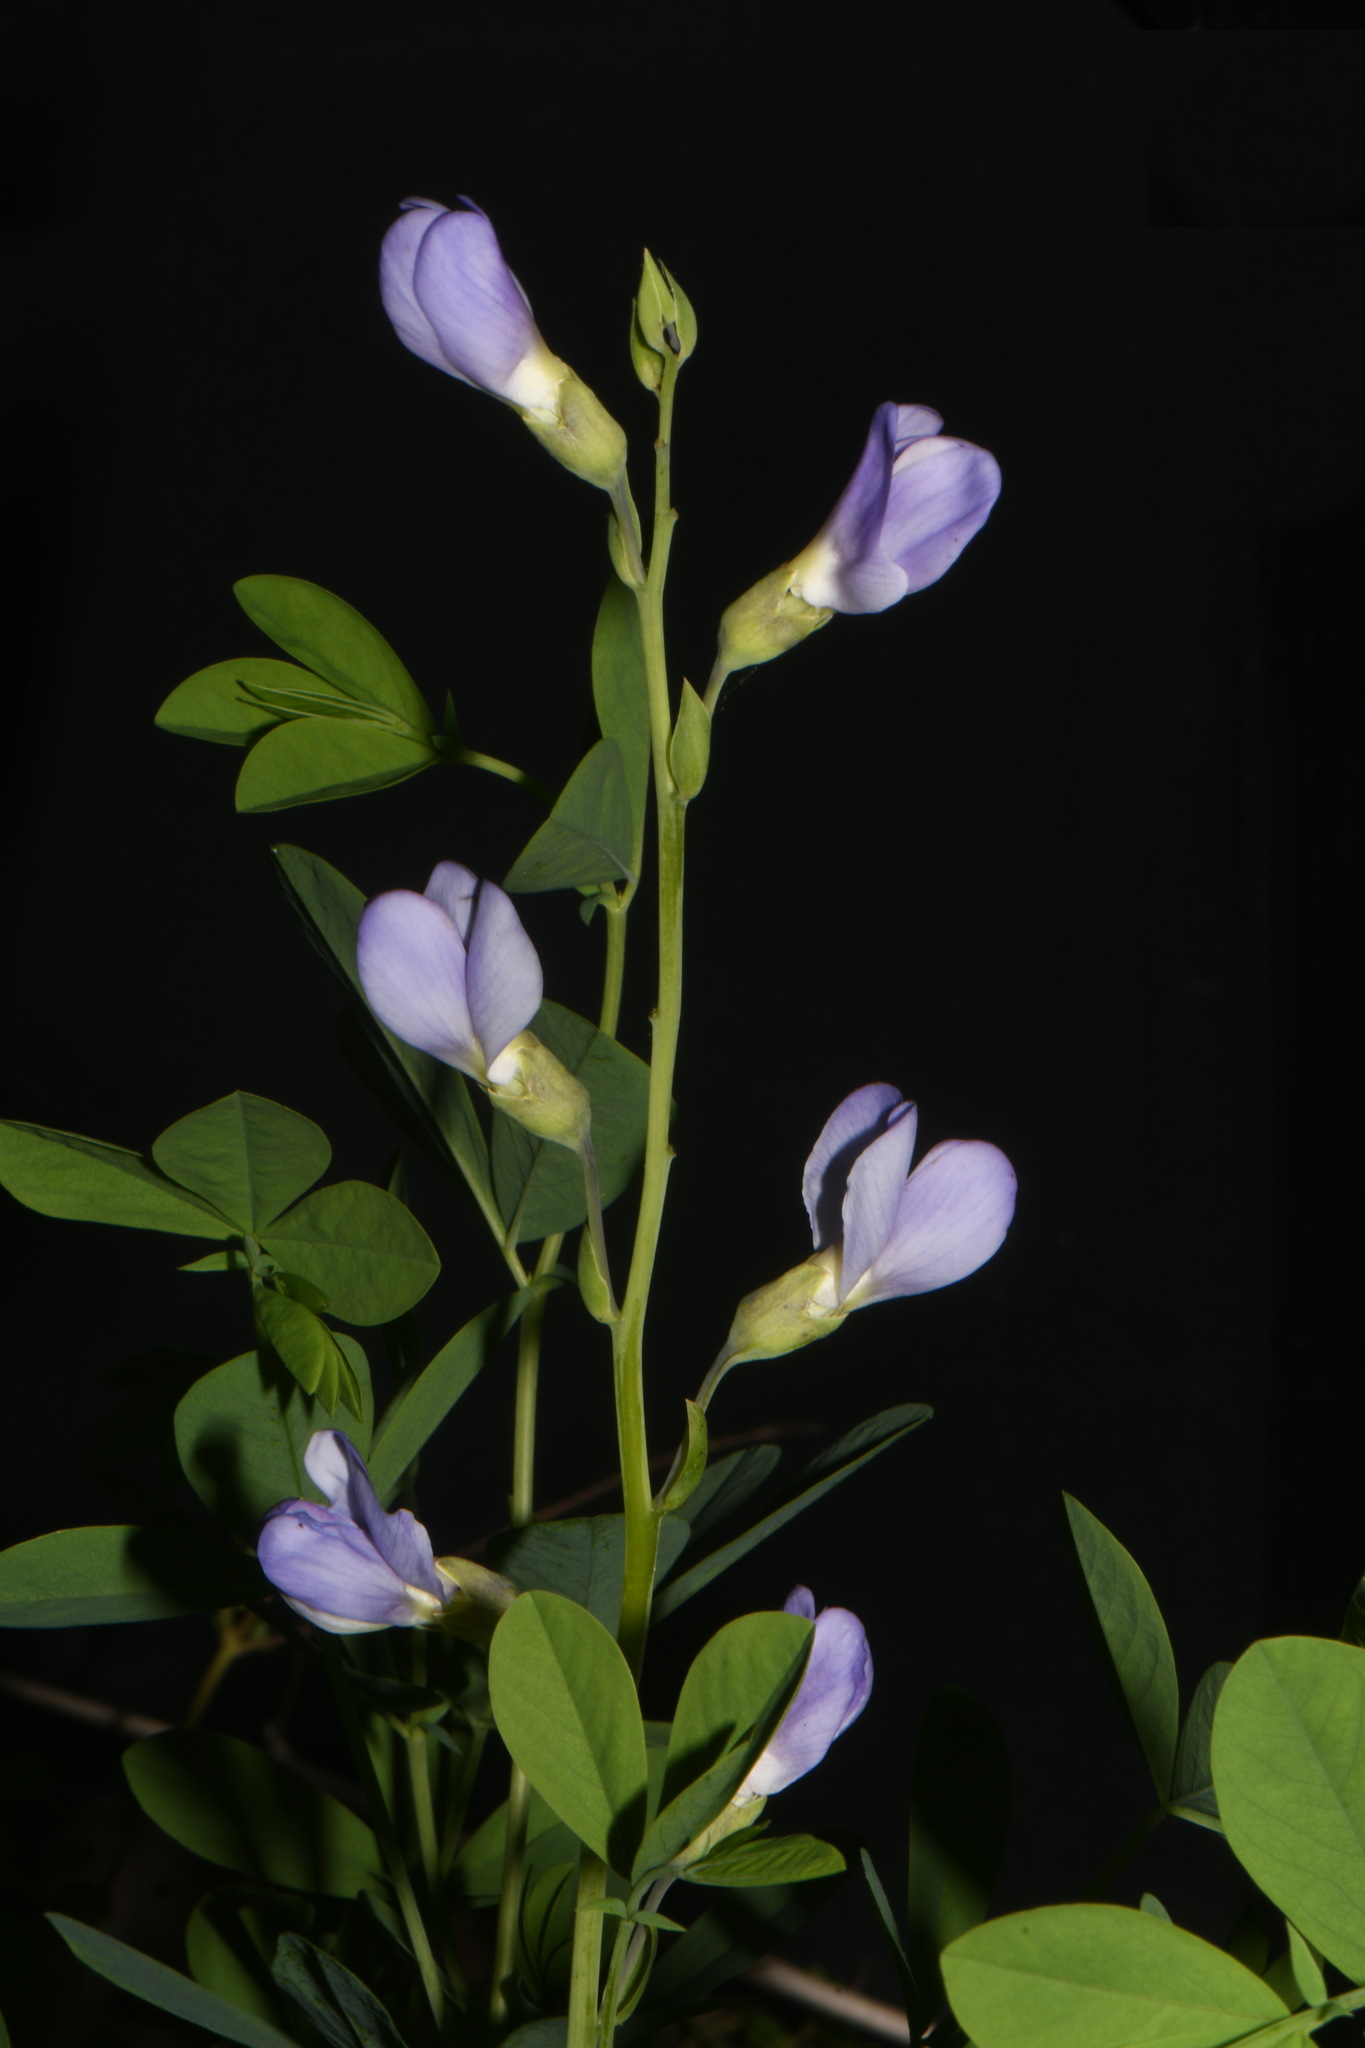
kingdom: Plantae
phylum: Tracheophyta
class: Magnoliopsida
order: Fabales
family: Fabaceae
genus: Baptisia
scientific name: Baptisia aberrans
